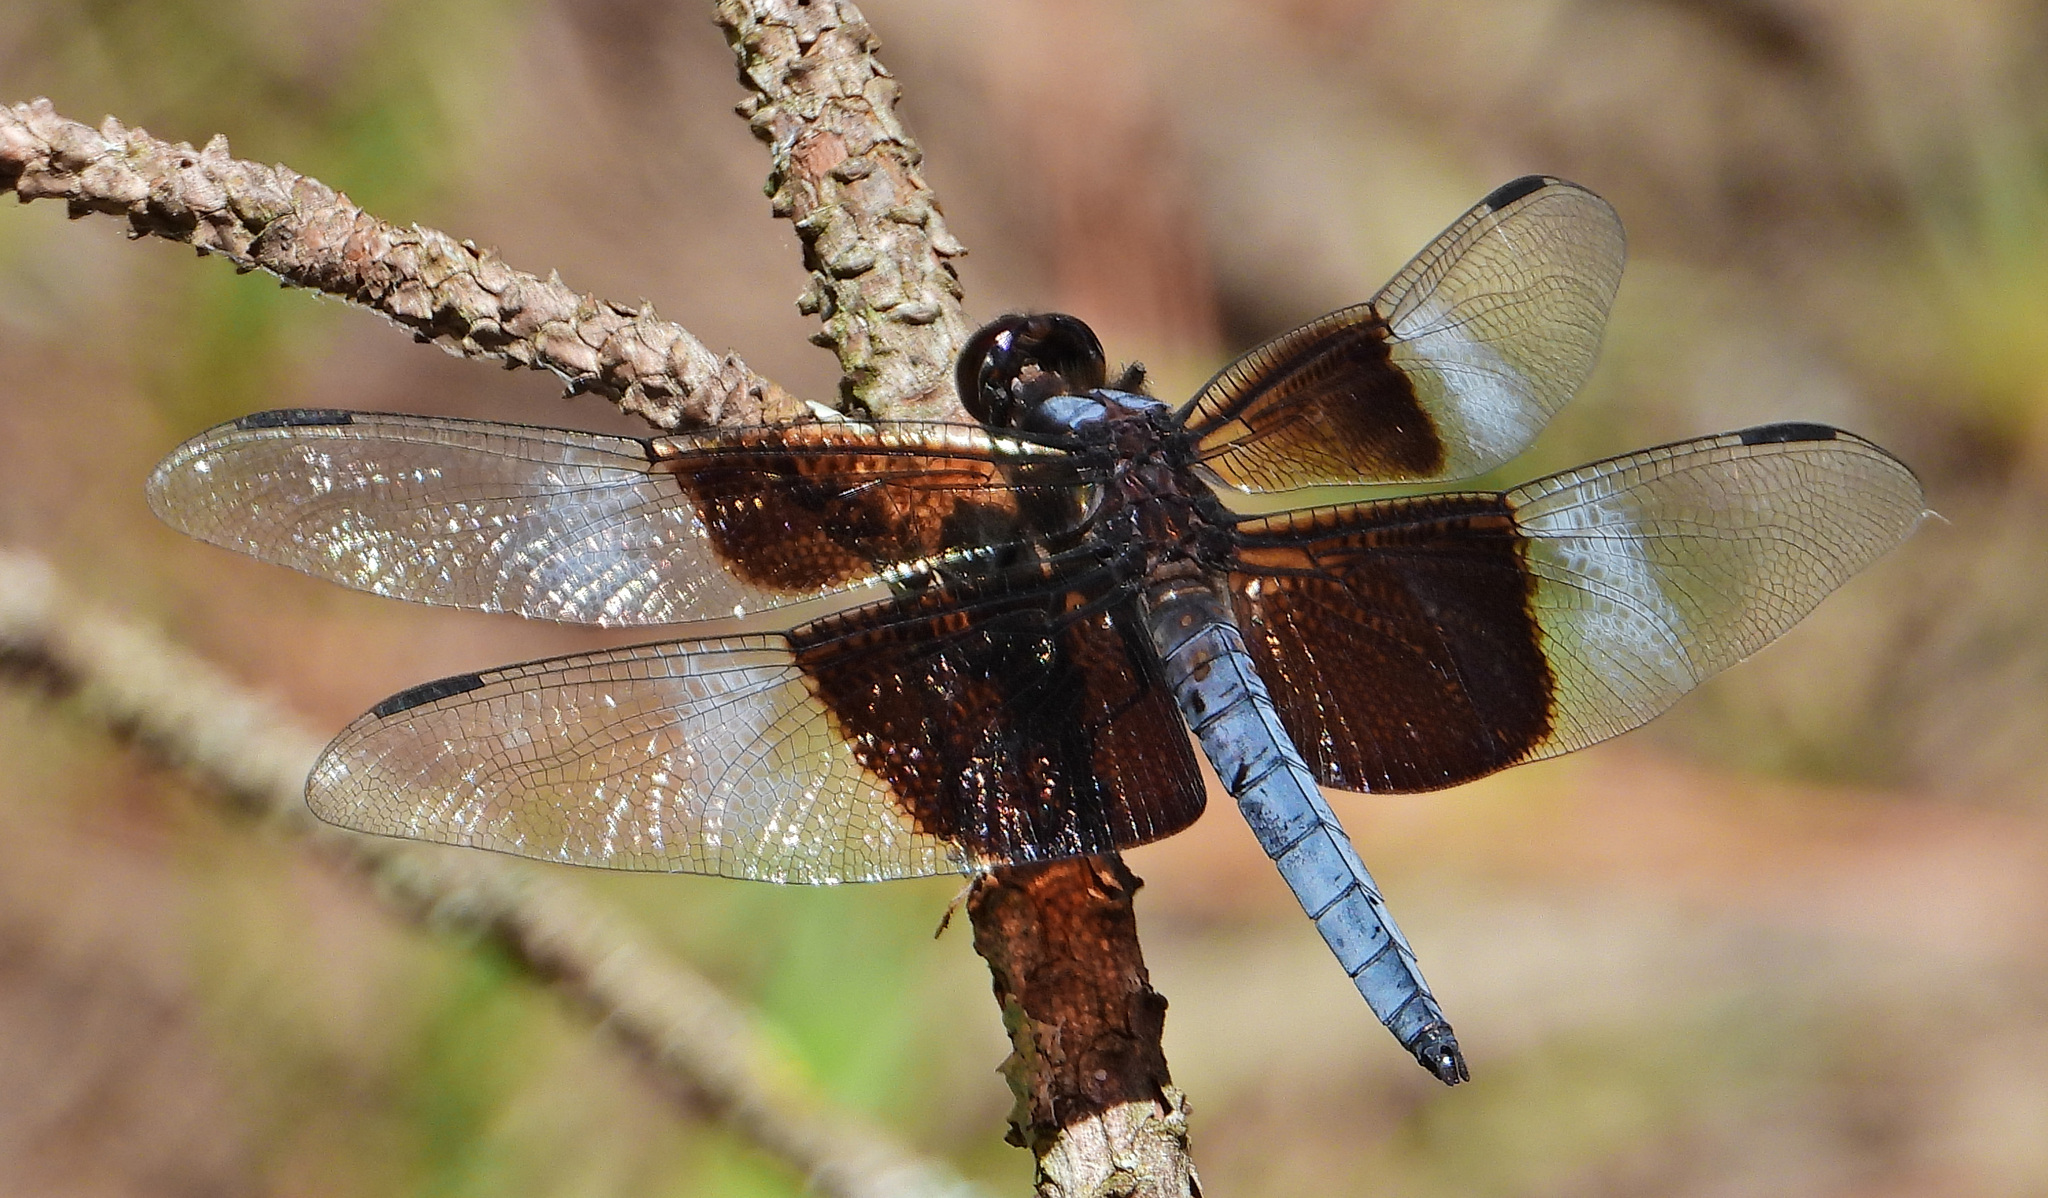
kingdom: Animalia
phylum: Arthropoda
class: Insecta
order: Odonata
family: Libellulidae
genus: Libellula
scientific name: Libellula luctuosa
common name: Widow skimmer
